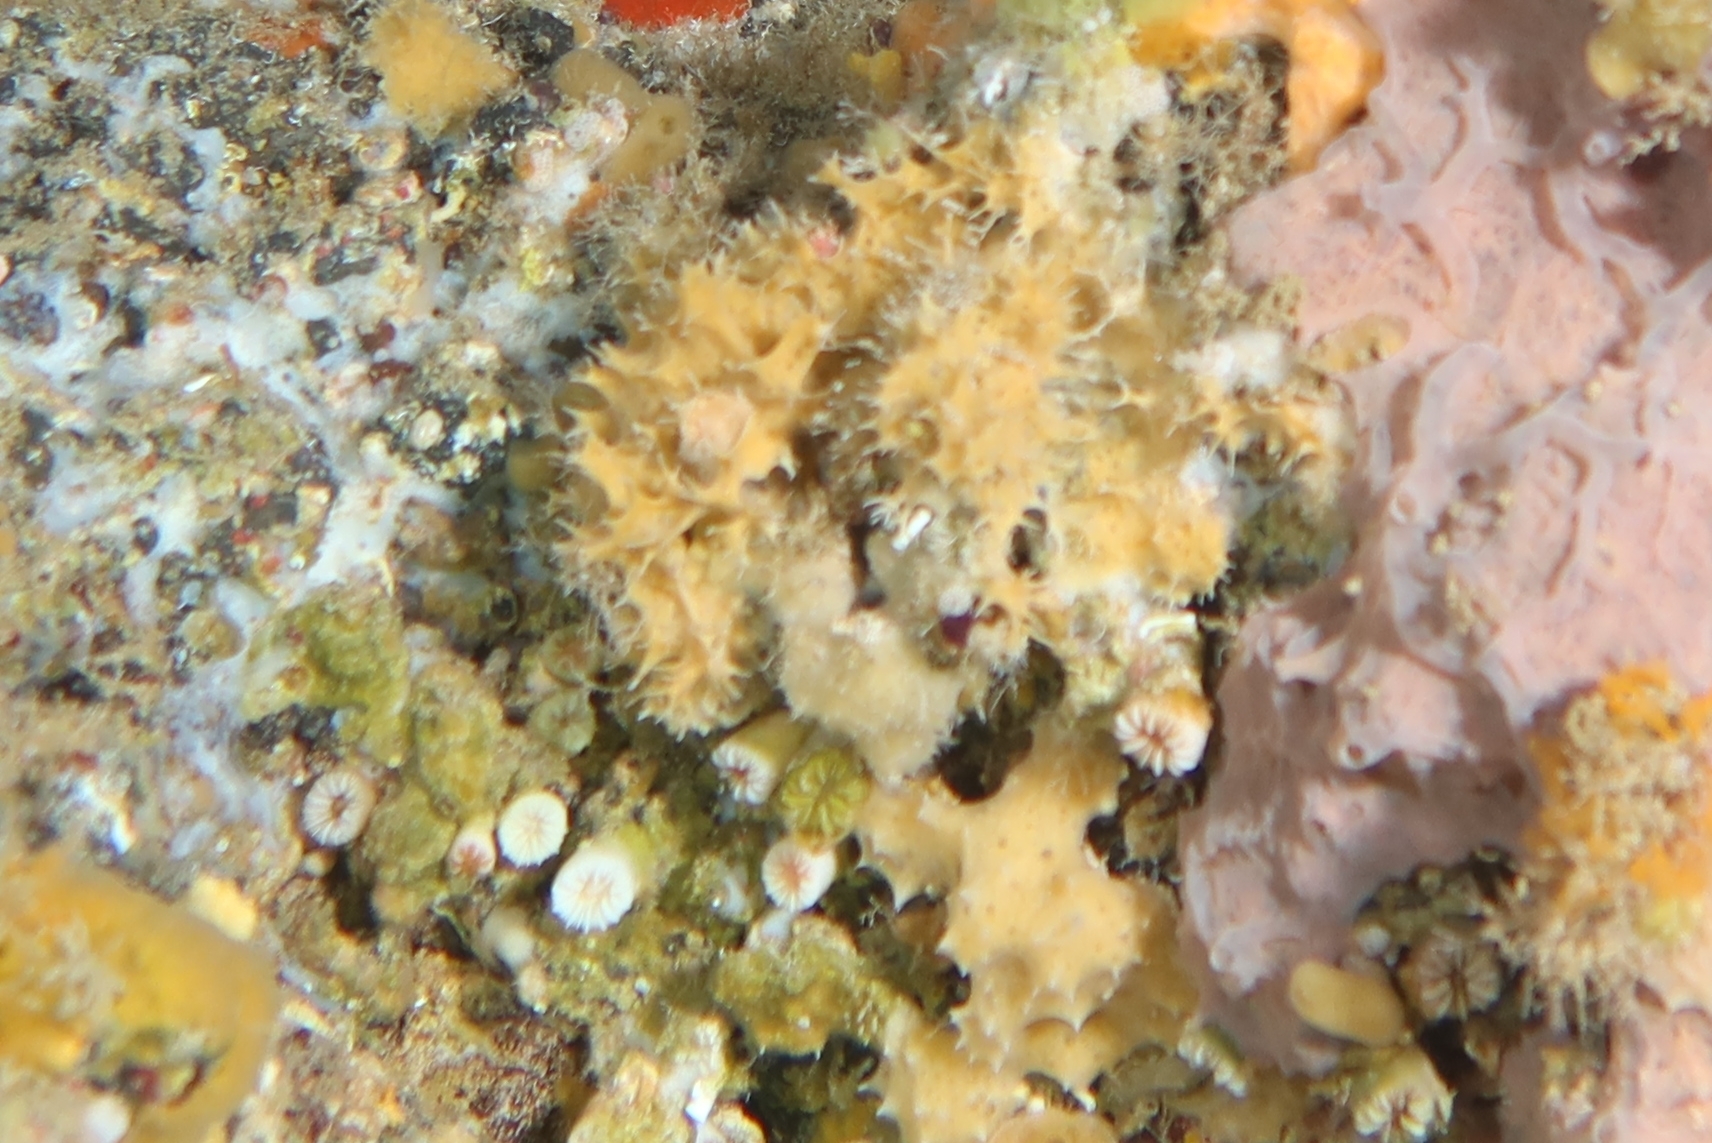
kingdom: Animalia
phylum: Porifera
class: Demospongiae
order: Dictyoceratida
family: Dysideidae
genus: Pleraplysilla
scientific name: Pleraplysilla spinifera
